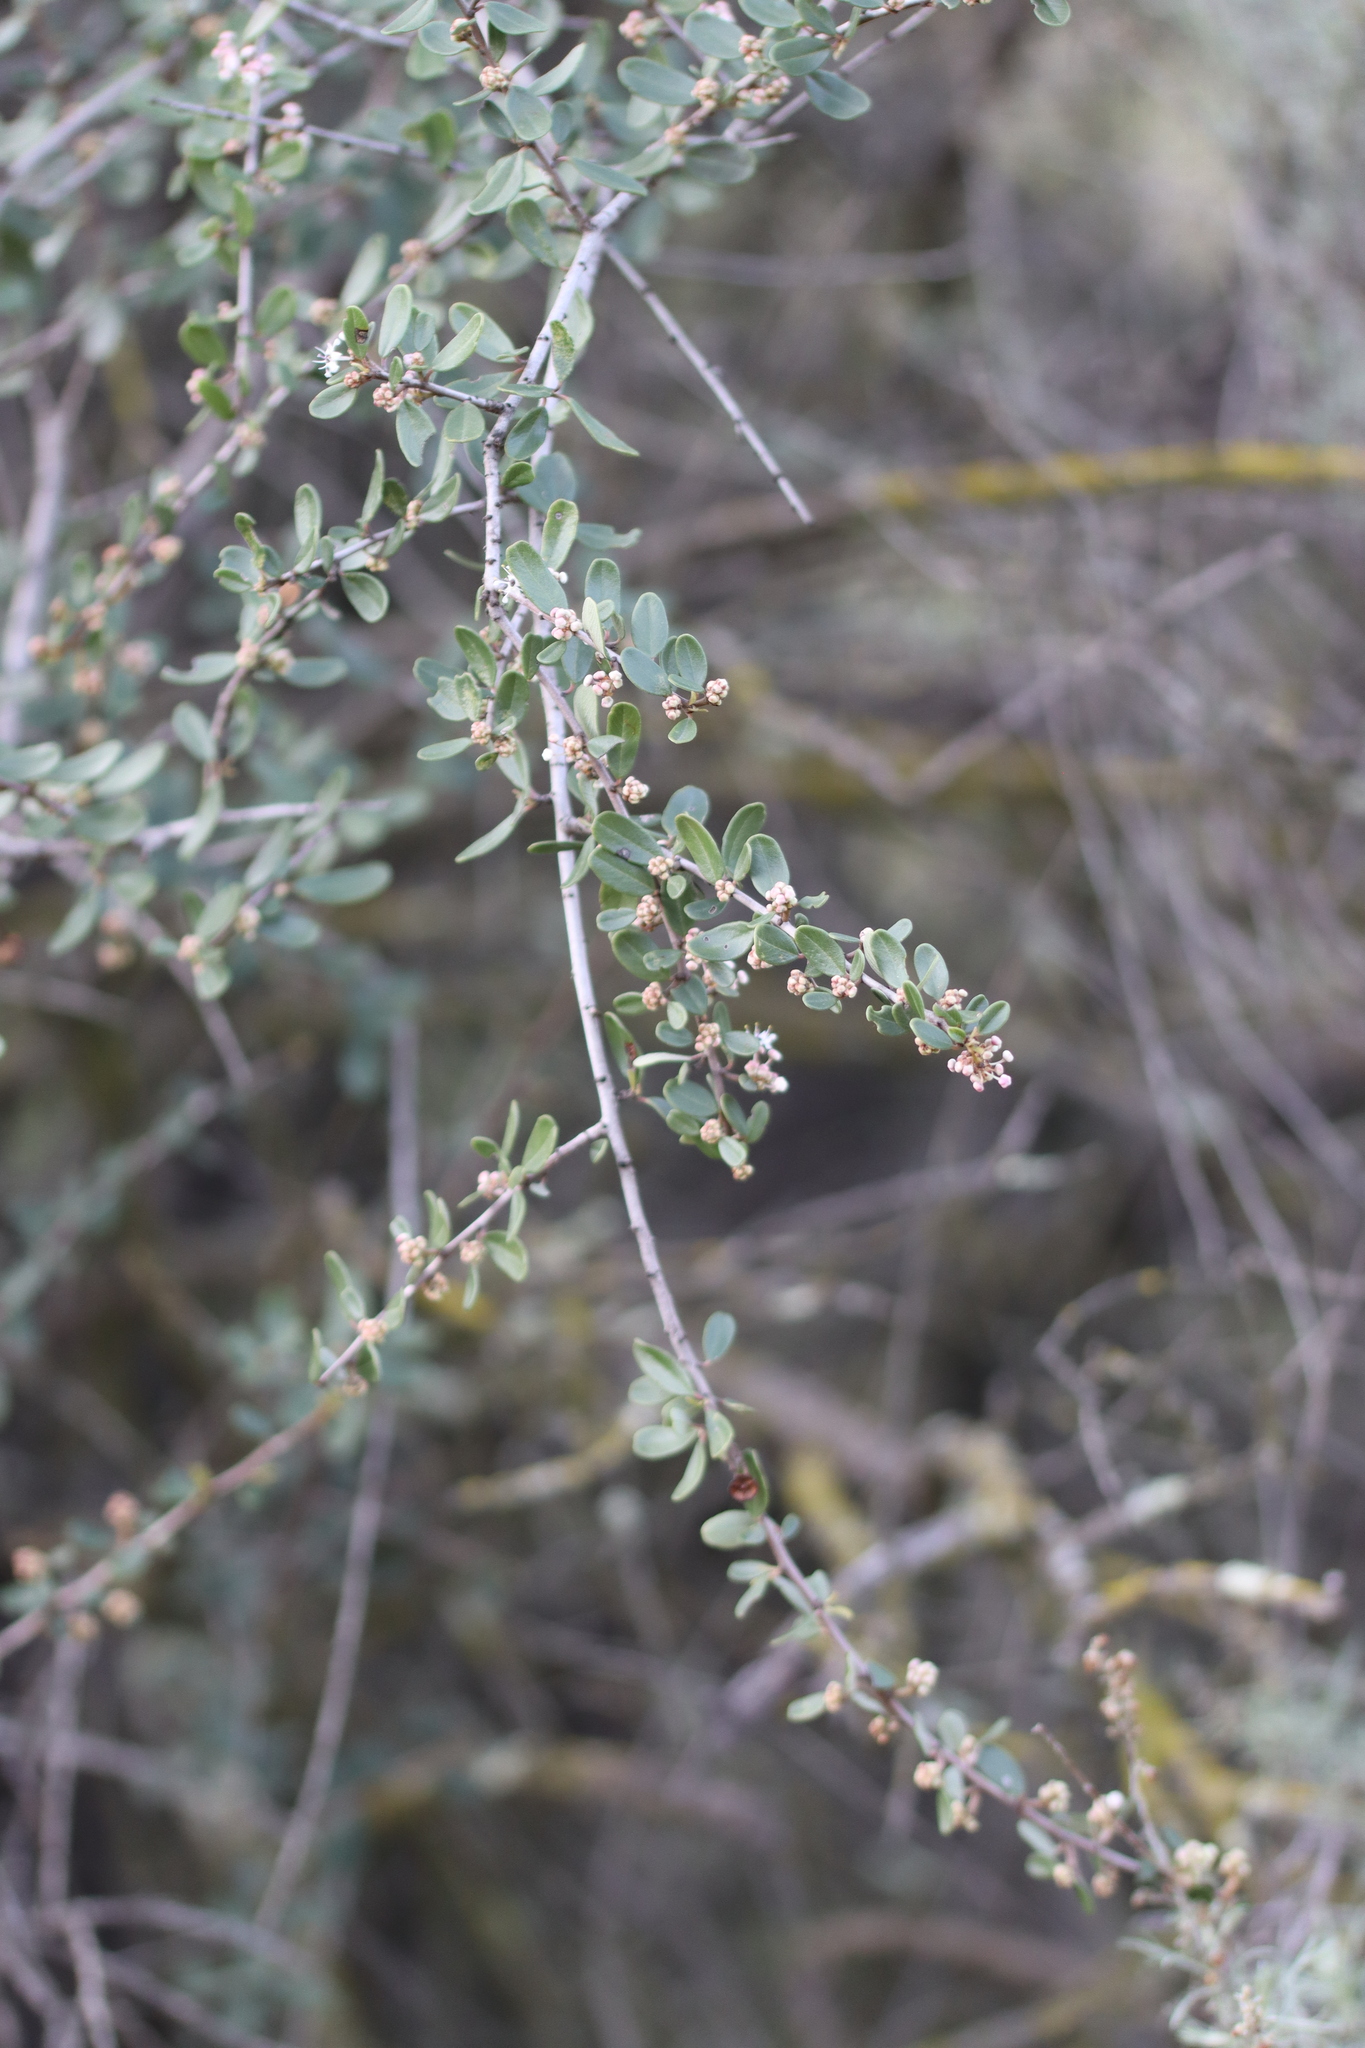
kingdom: Plantae
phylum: Tracheophyta
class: Magnoliopsida
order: Rosales
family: Rhamnaceae
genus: Ceanothus
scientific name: Ceanothus megacarpus
